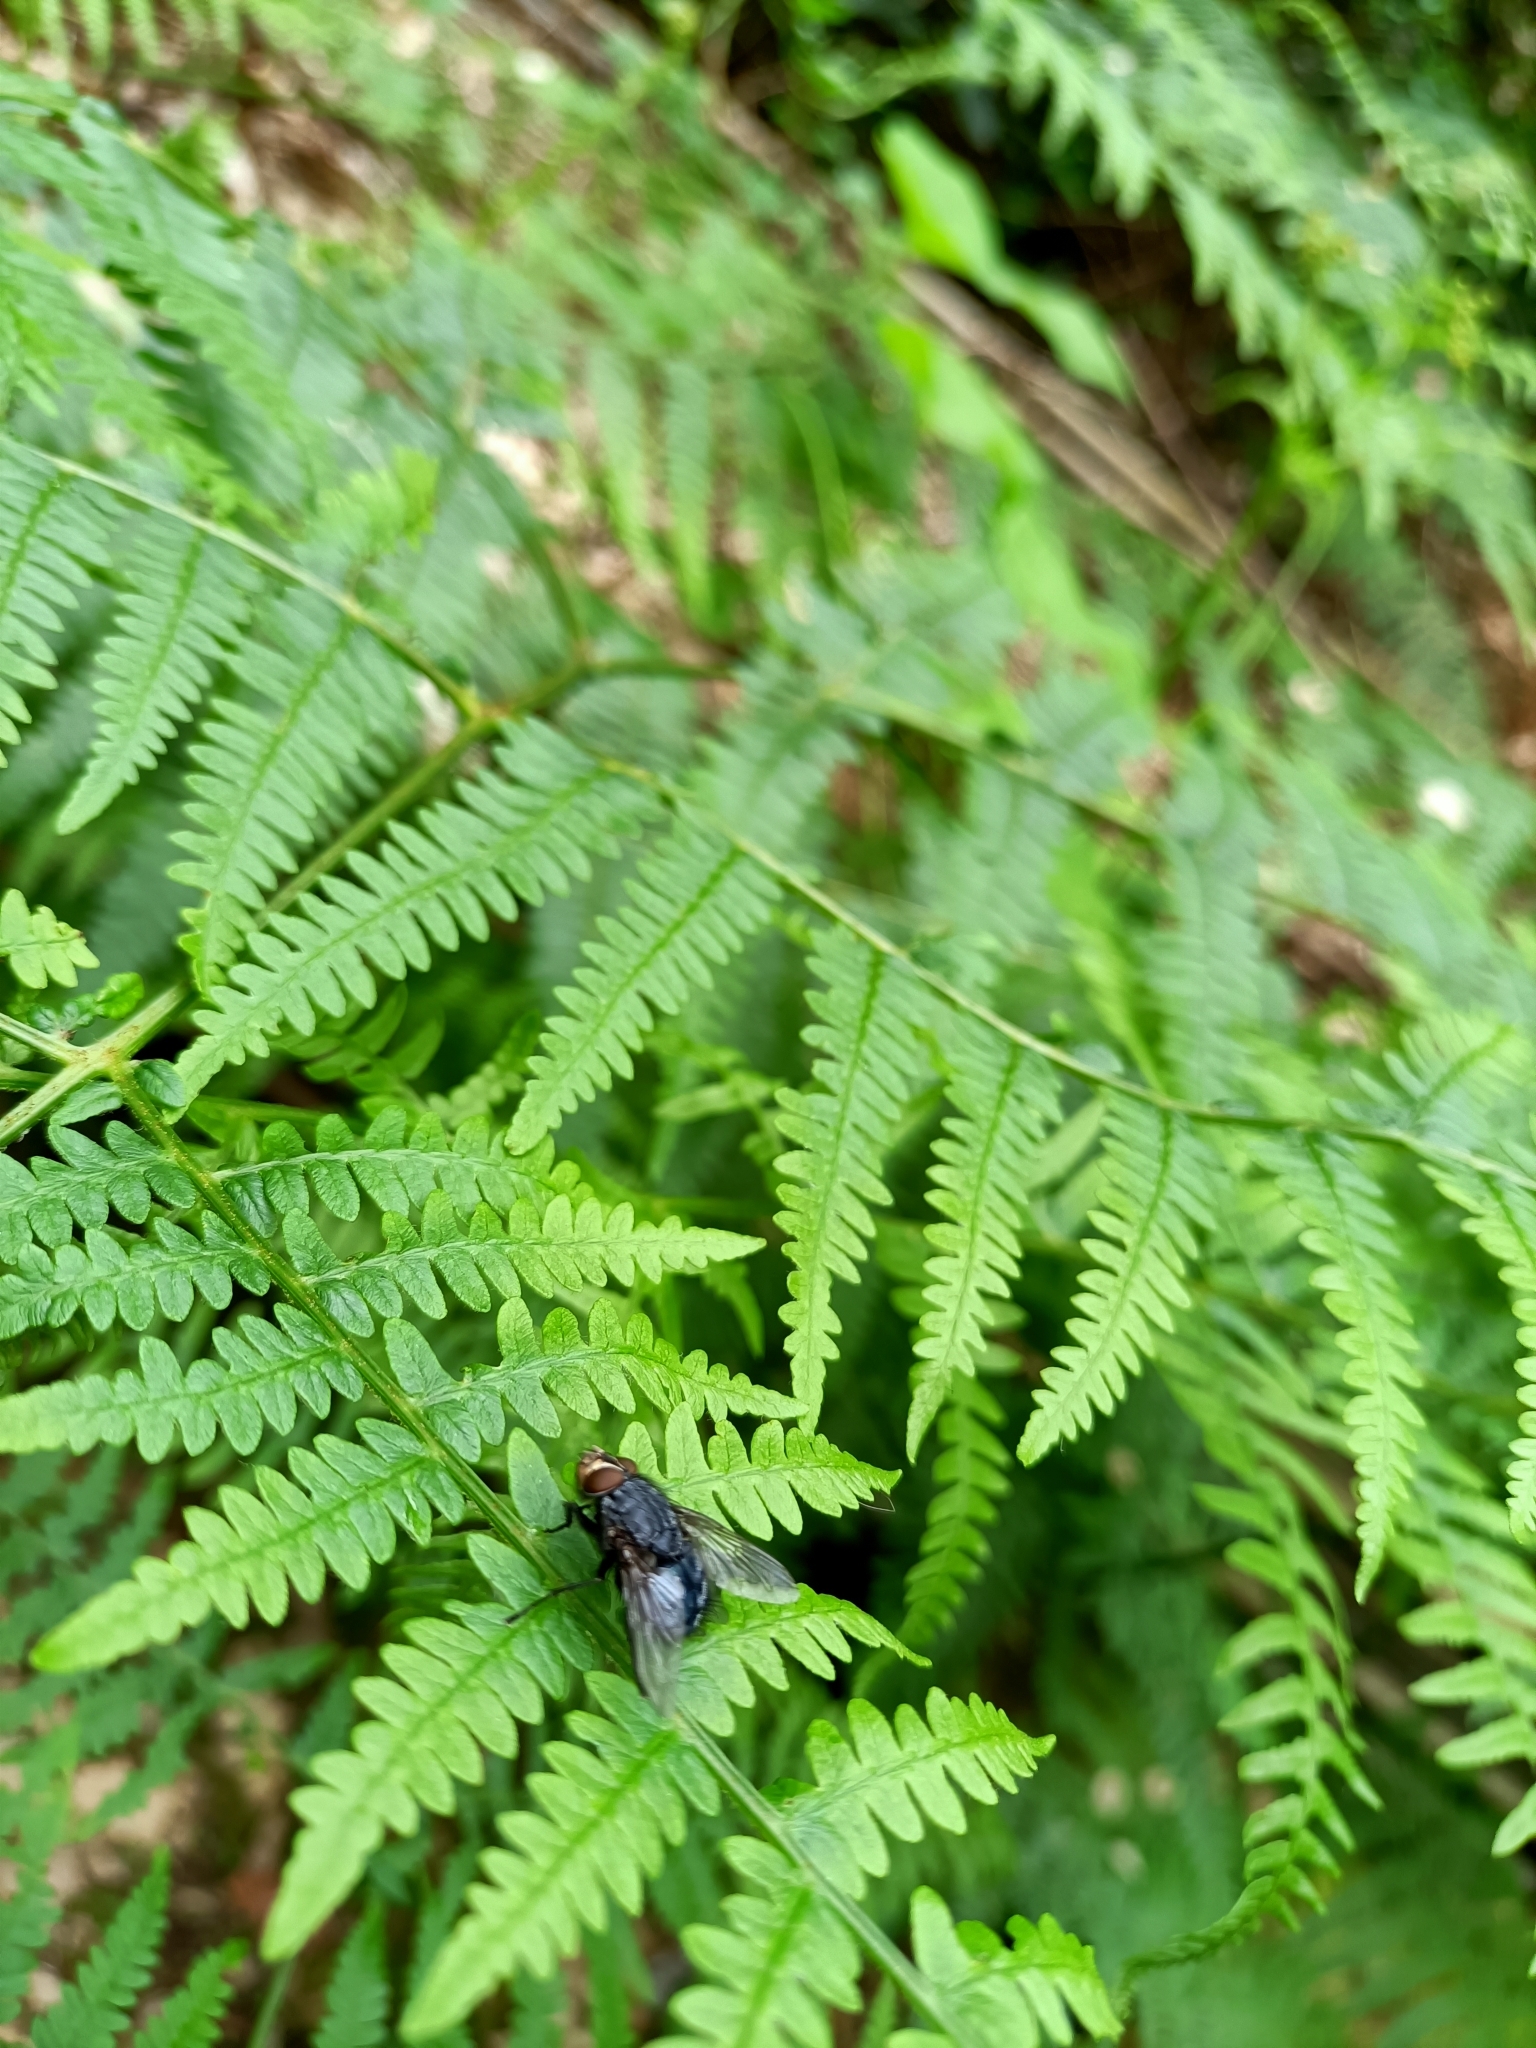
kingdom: Animalia
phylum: Arthropoda
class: Insecta
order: Diptera
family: Calliphoridae
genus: Calliphora
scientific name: Calliphora vicina
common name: Common blow flie
